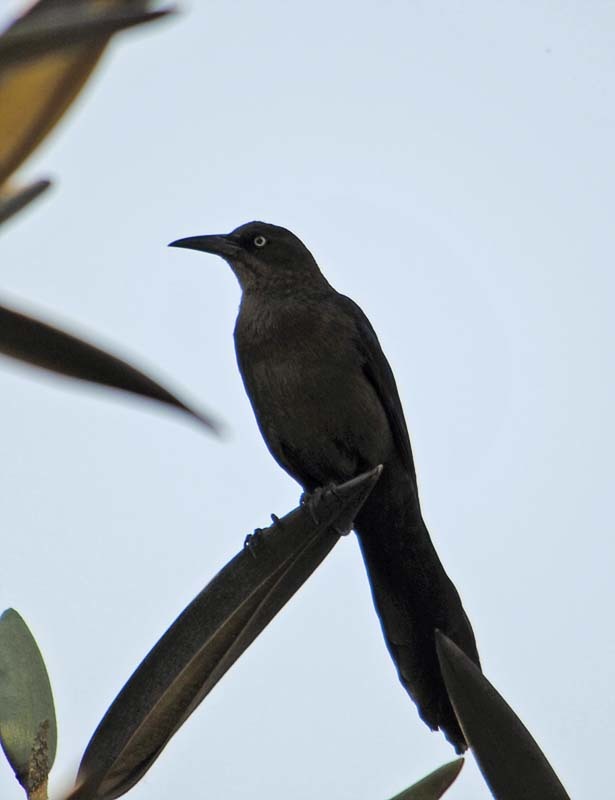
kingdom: Animalia
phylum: Chordata
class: Aves
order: Passeriformes
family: Icteridae
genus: Quiscalus
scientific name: Quiscalus mexicanus
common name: Great-tailed grackle
